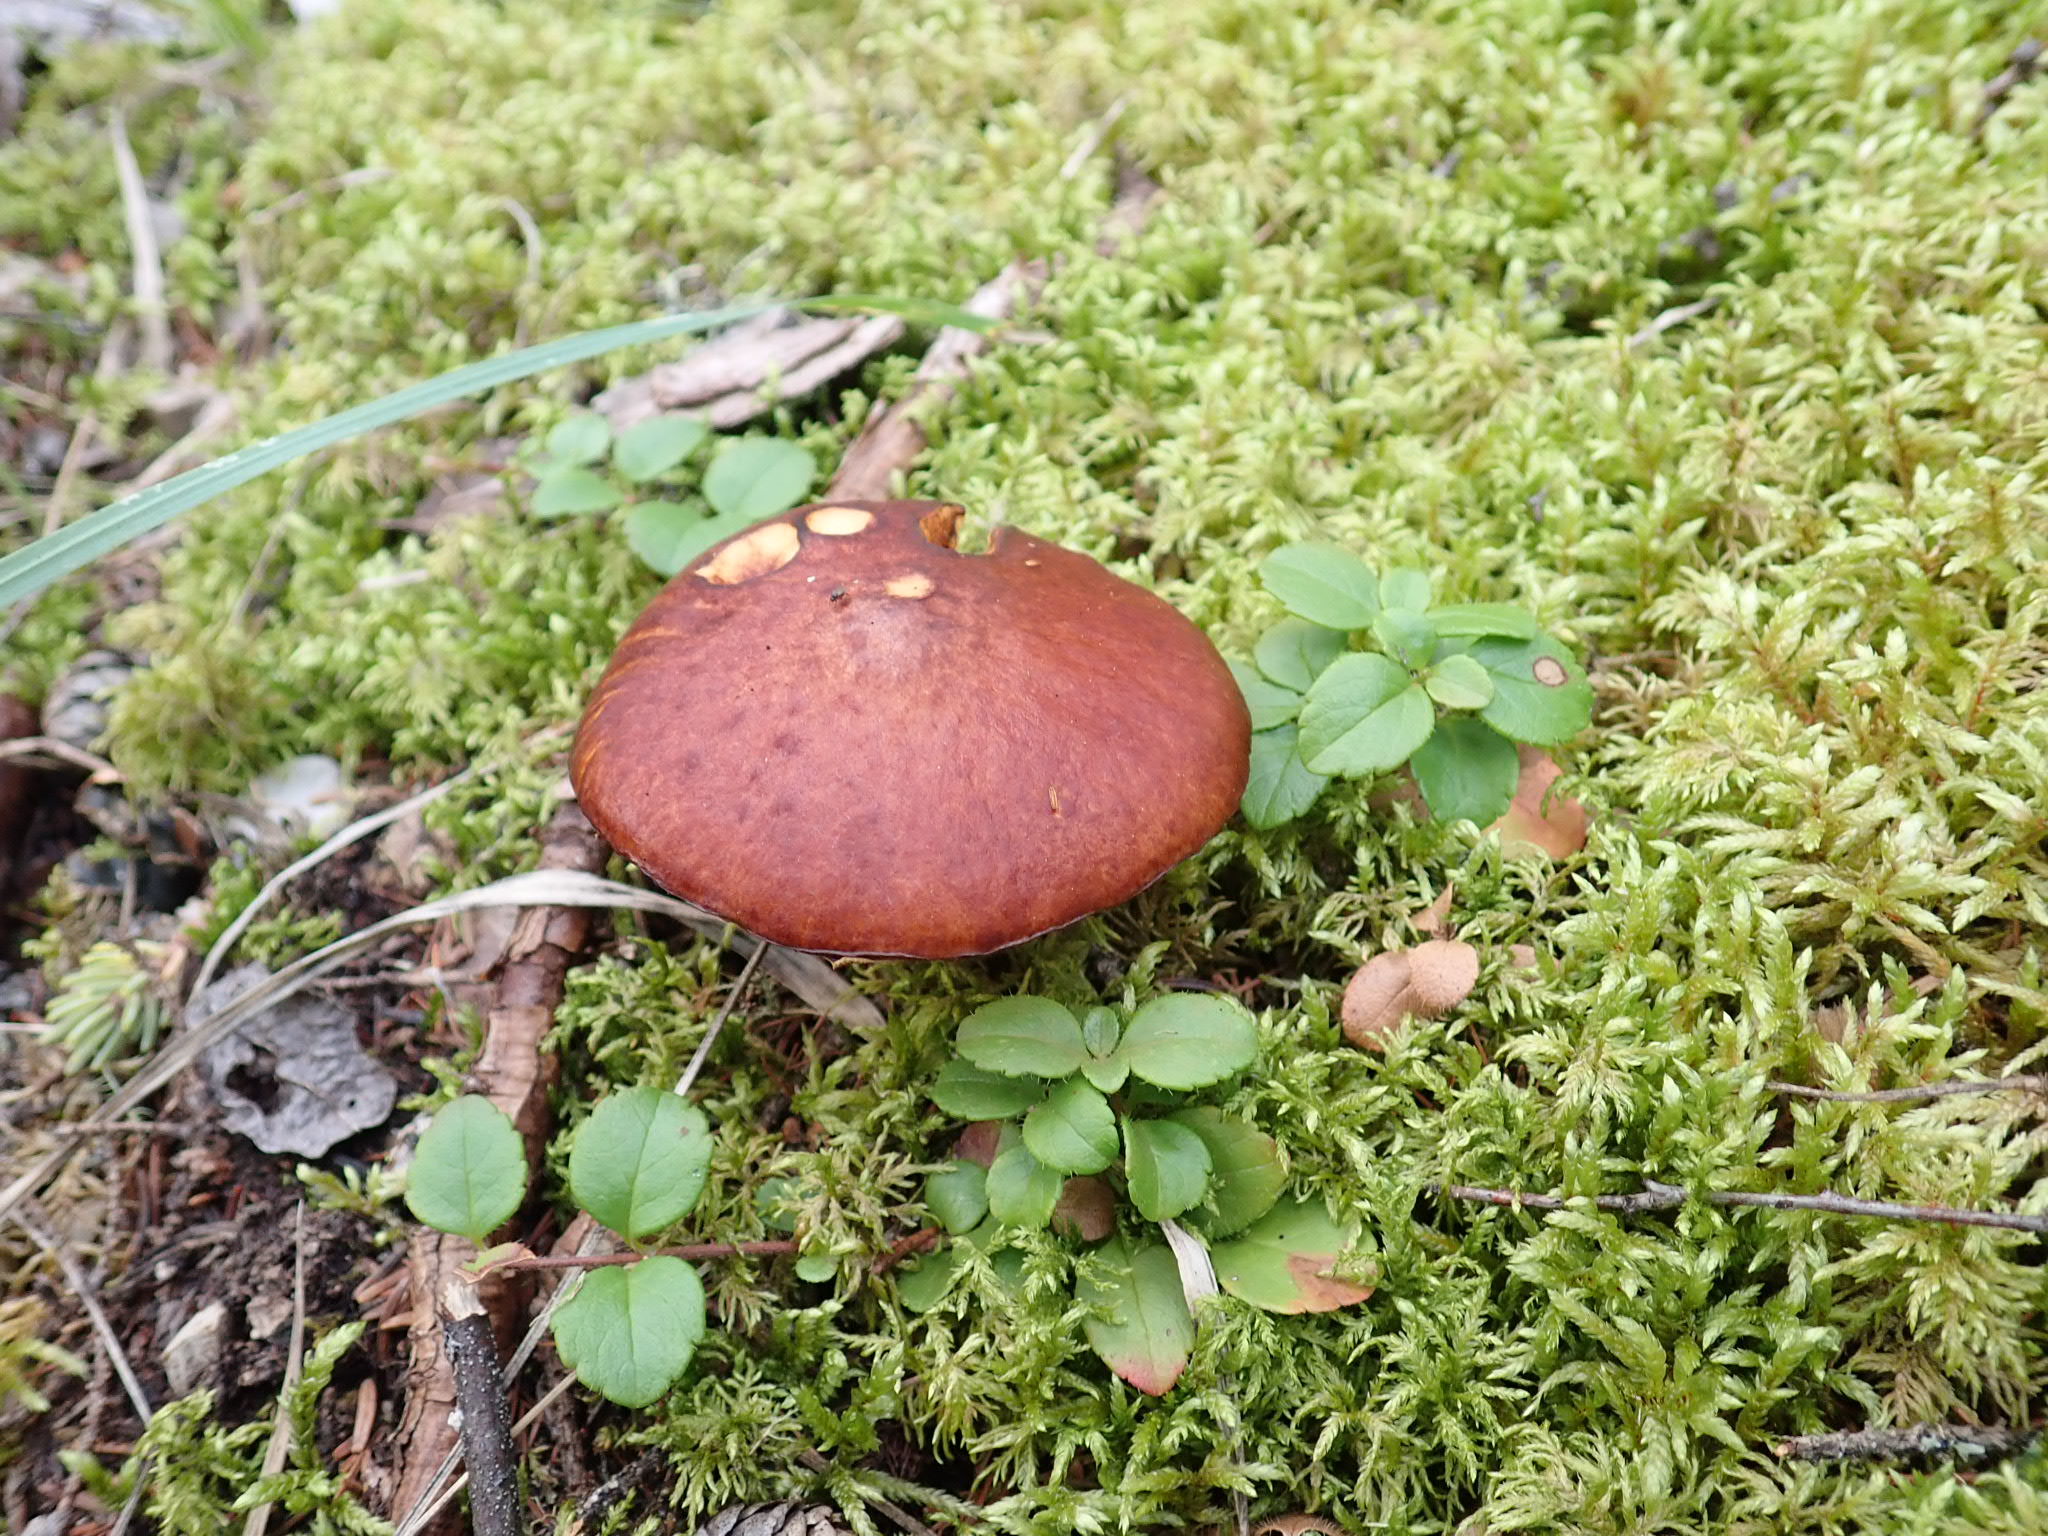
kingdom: Fungi
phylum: Basidiomycota
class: Agaricomycetes
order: Boletales
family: Suillaceae
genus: Boletinus
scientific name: Boletinus glandulosus
